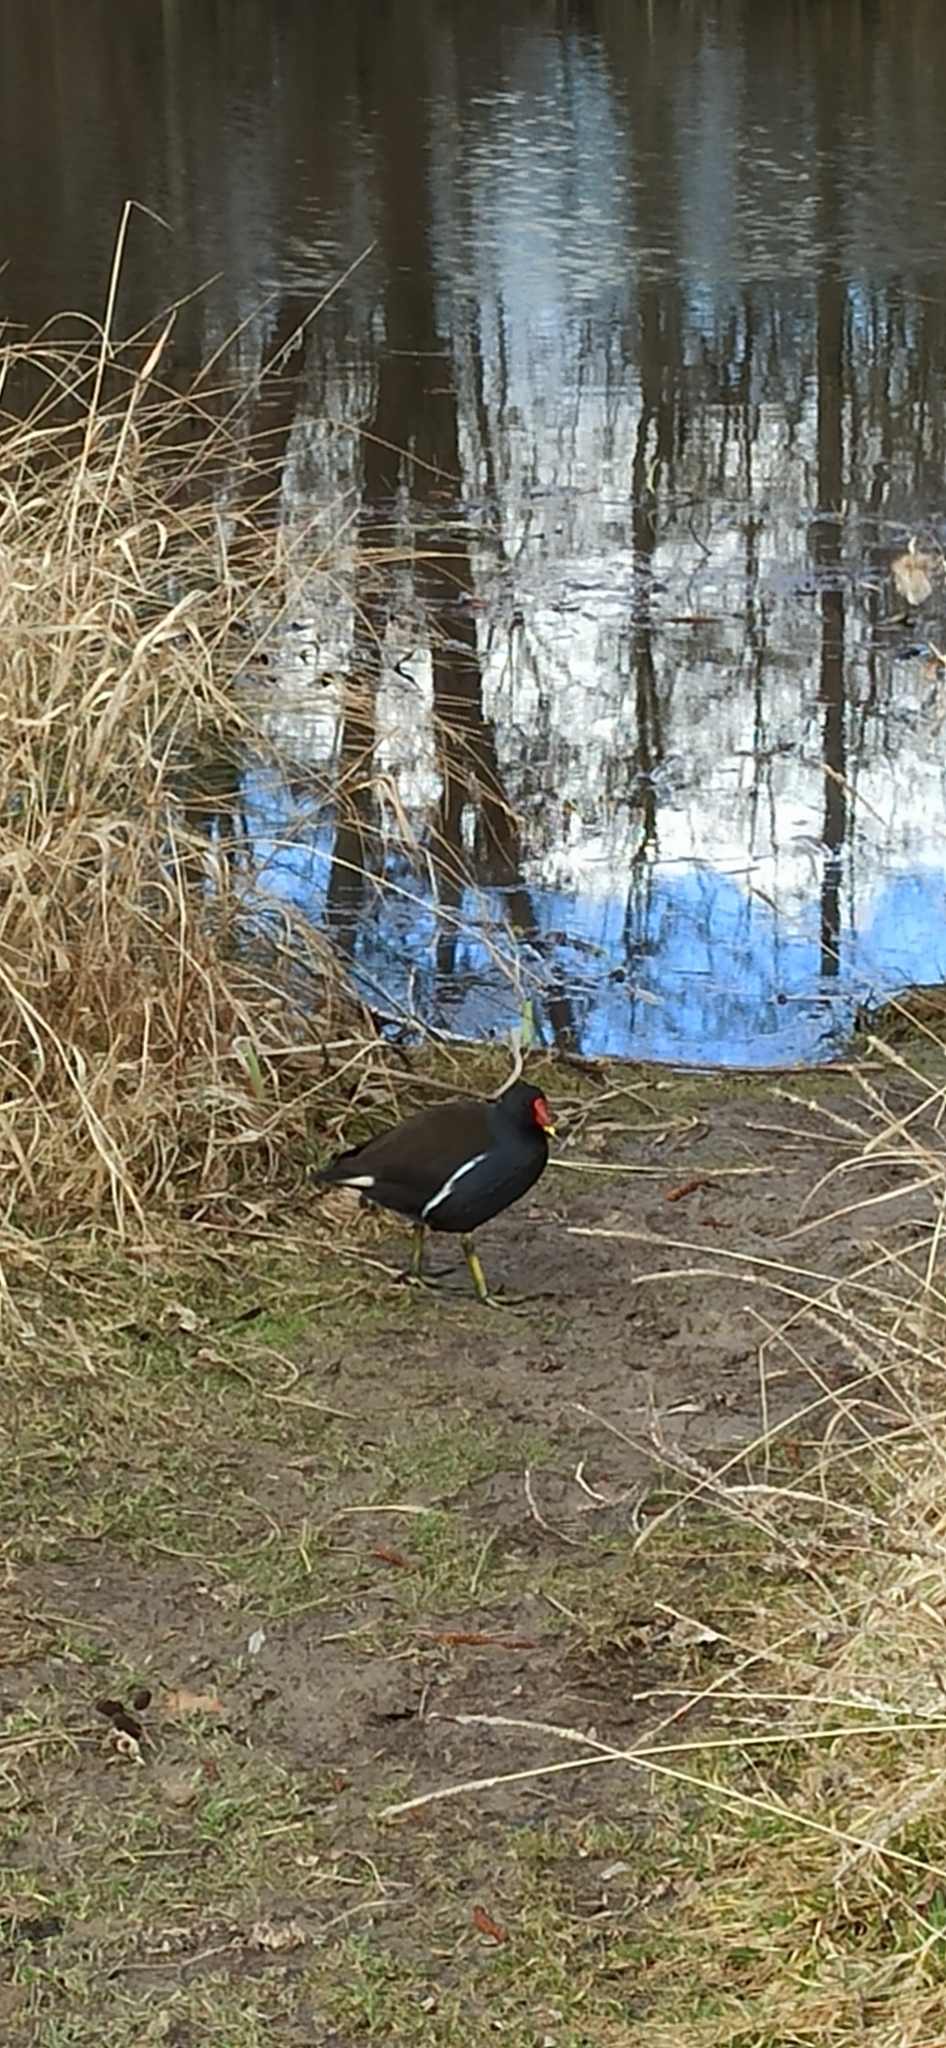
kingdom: Animalia
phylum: Chordata
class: Aves
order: Gruiformes
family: Rallidae
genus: Gallinula
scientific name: Gallinula chloropus
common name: Common moorhen
